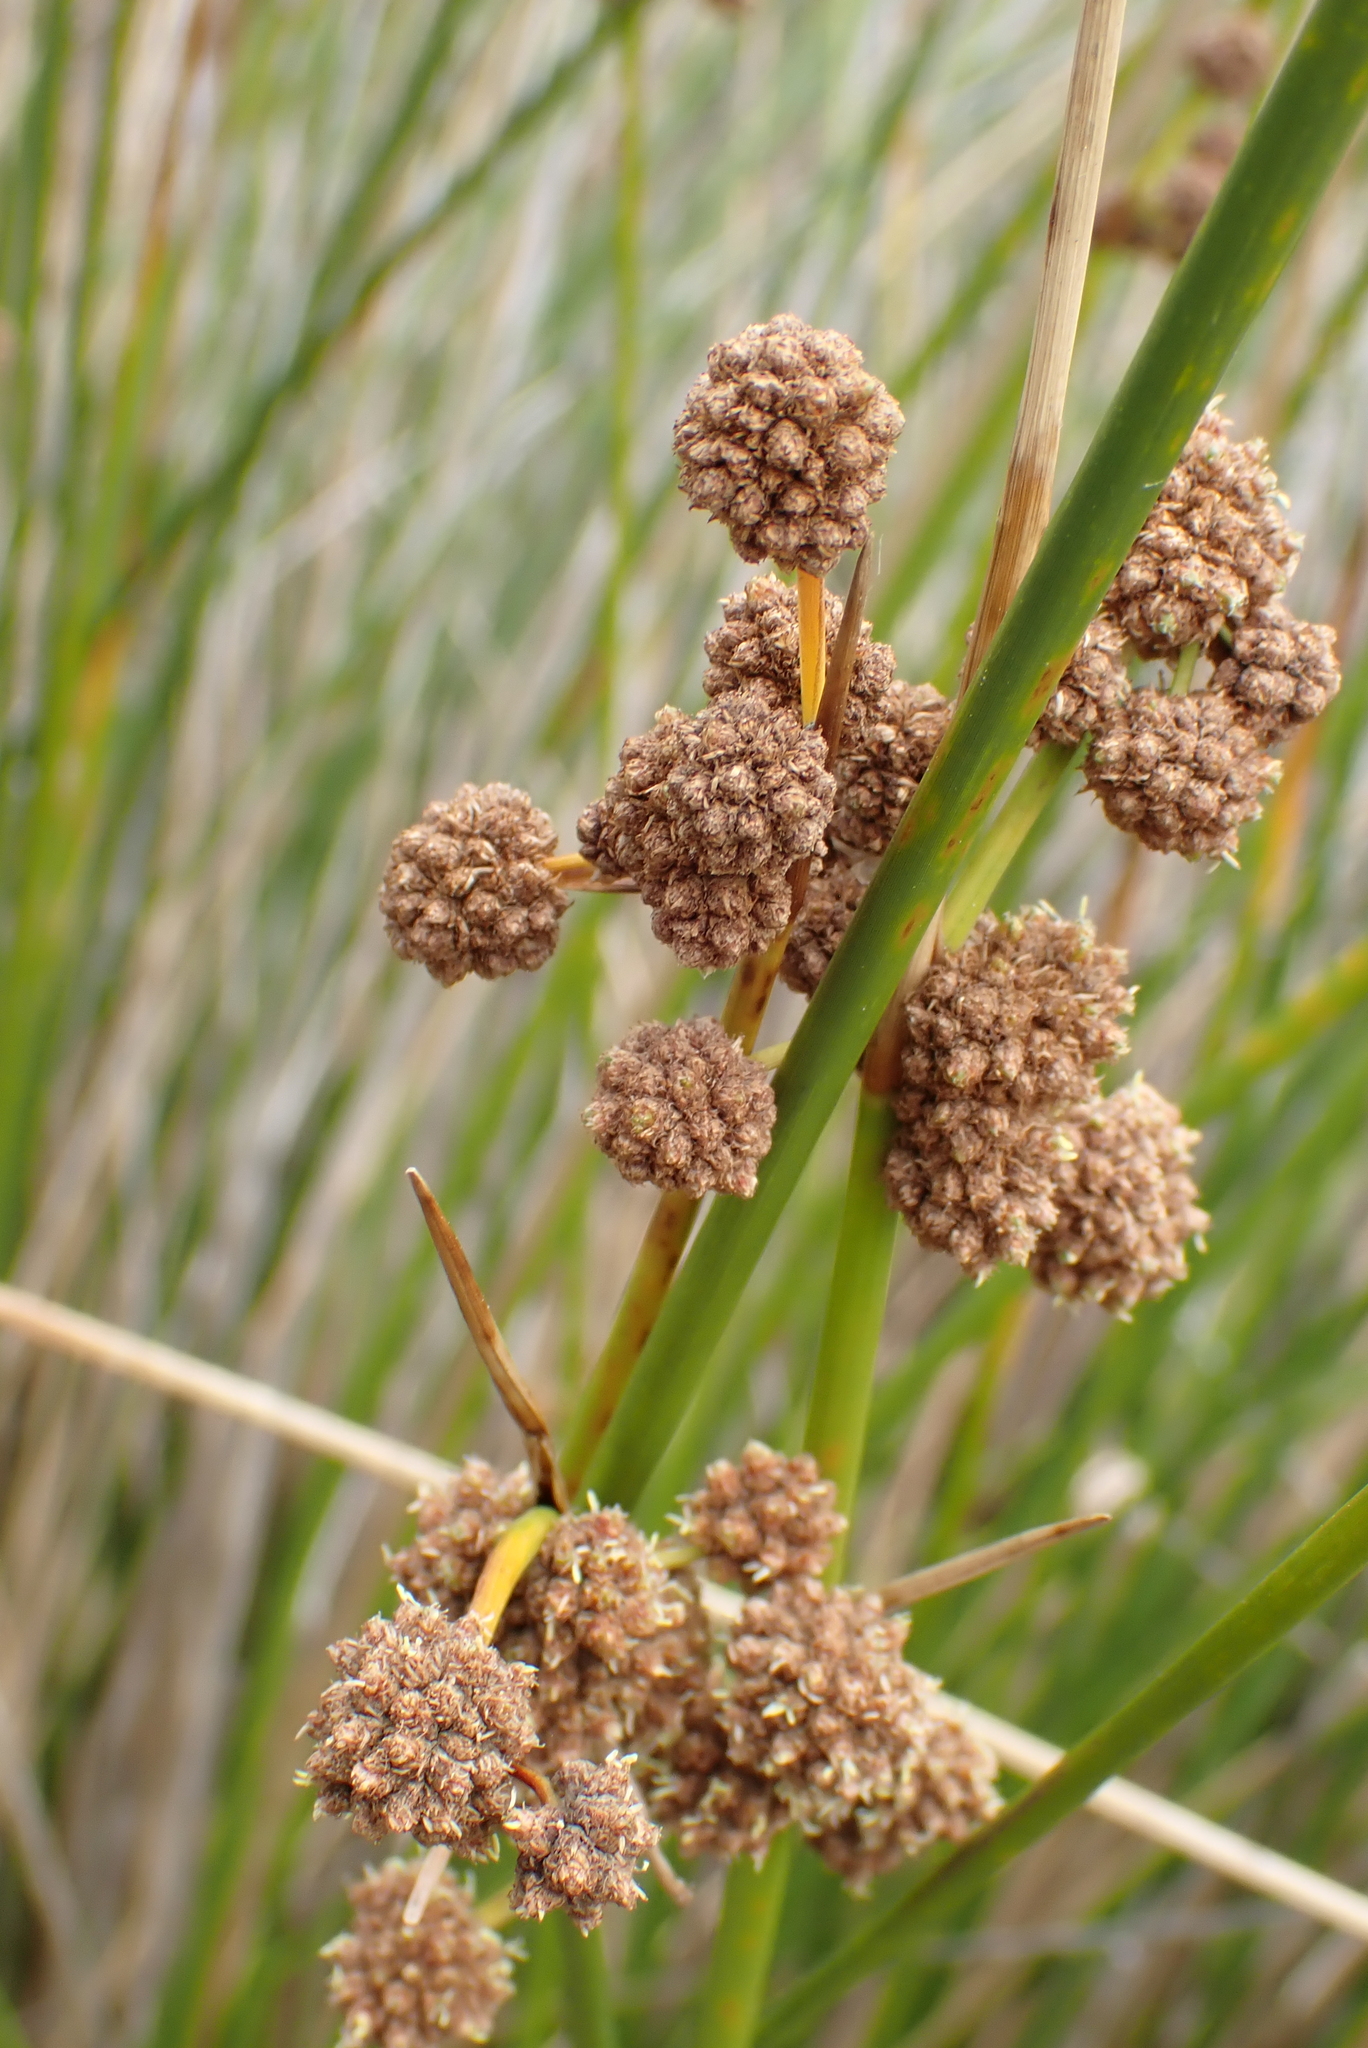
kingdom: Plantae
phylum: Tracheophyta
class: Liliopsida
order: Poales
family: Cyperaceae
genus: Scirpoides
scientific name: Scirpoides holoschoenus
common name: Round-headed club-rush
